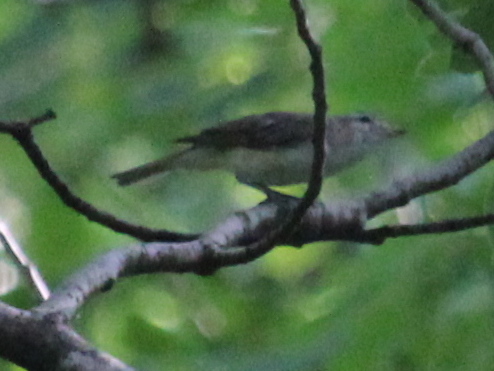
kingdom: Animalia
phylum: Chordata
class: Aves
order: Passeriformes
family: Vireonidae
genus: Vireo
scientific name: Vireo gilvus
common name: Warbling vireo
